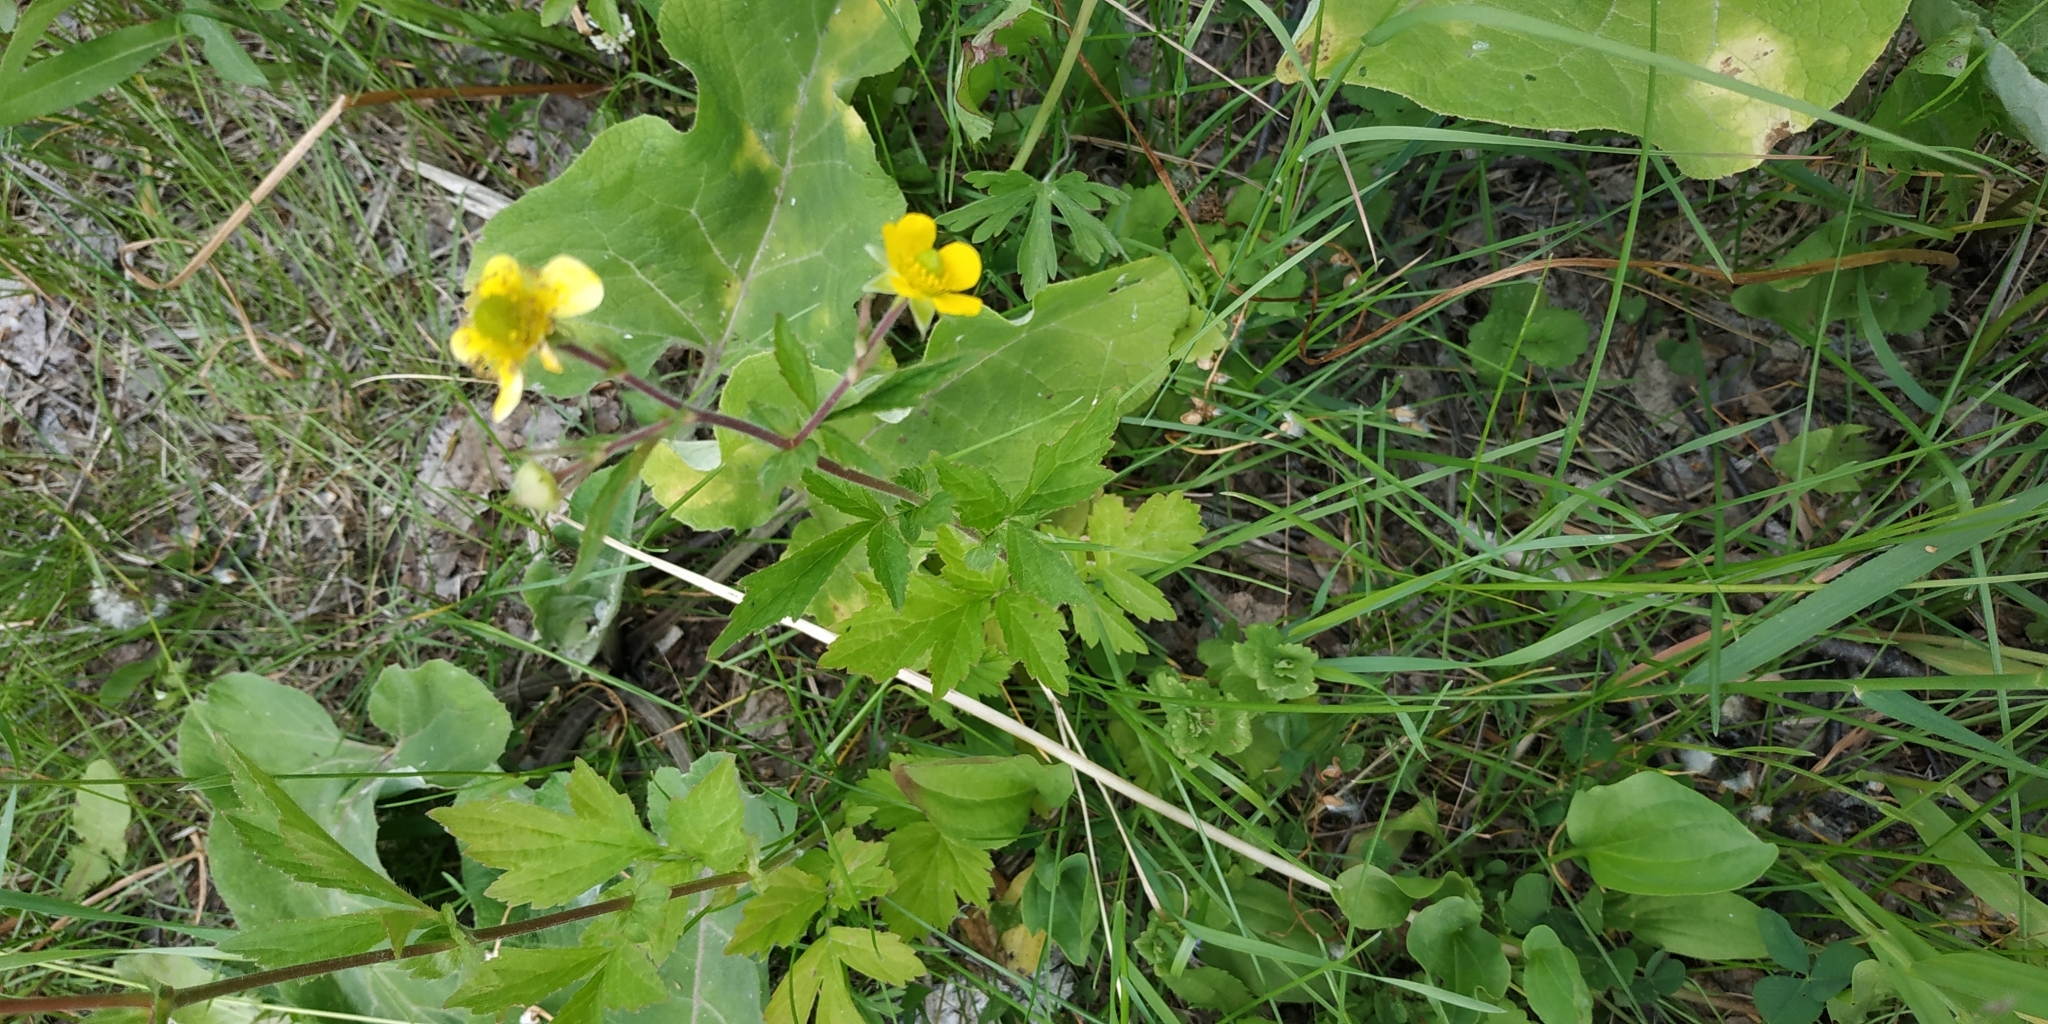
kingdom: Plantae
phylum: Tracheophyta
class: Magnoliopsida
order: Rosales
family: Rosaceae
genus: Geum
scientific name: Geum aleppicum
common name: Yellow avens
